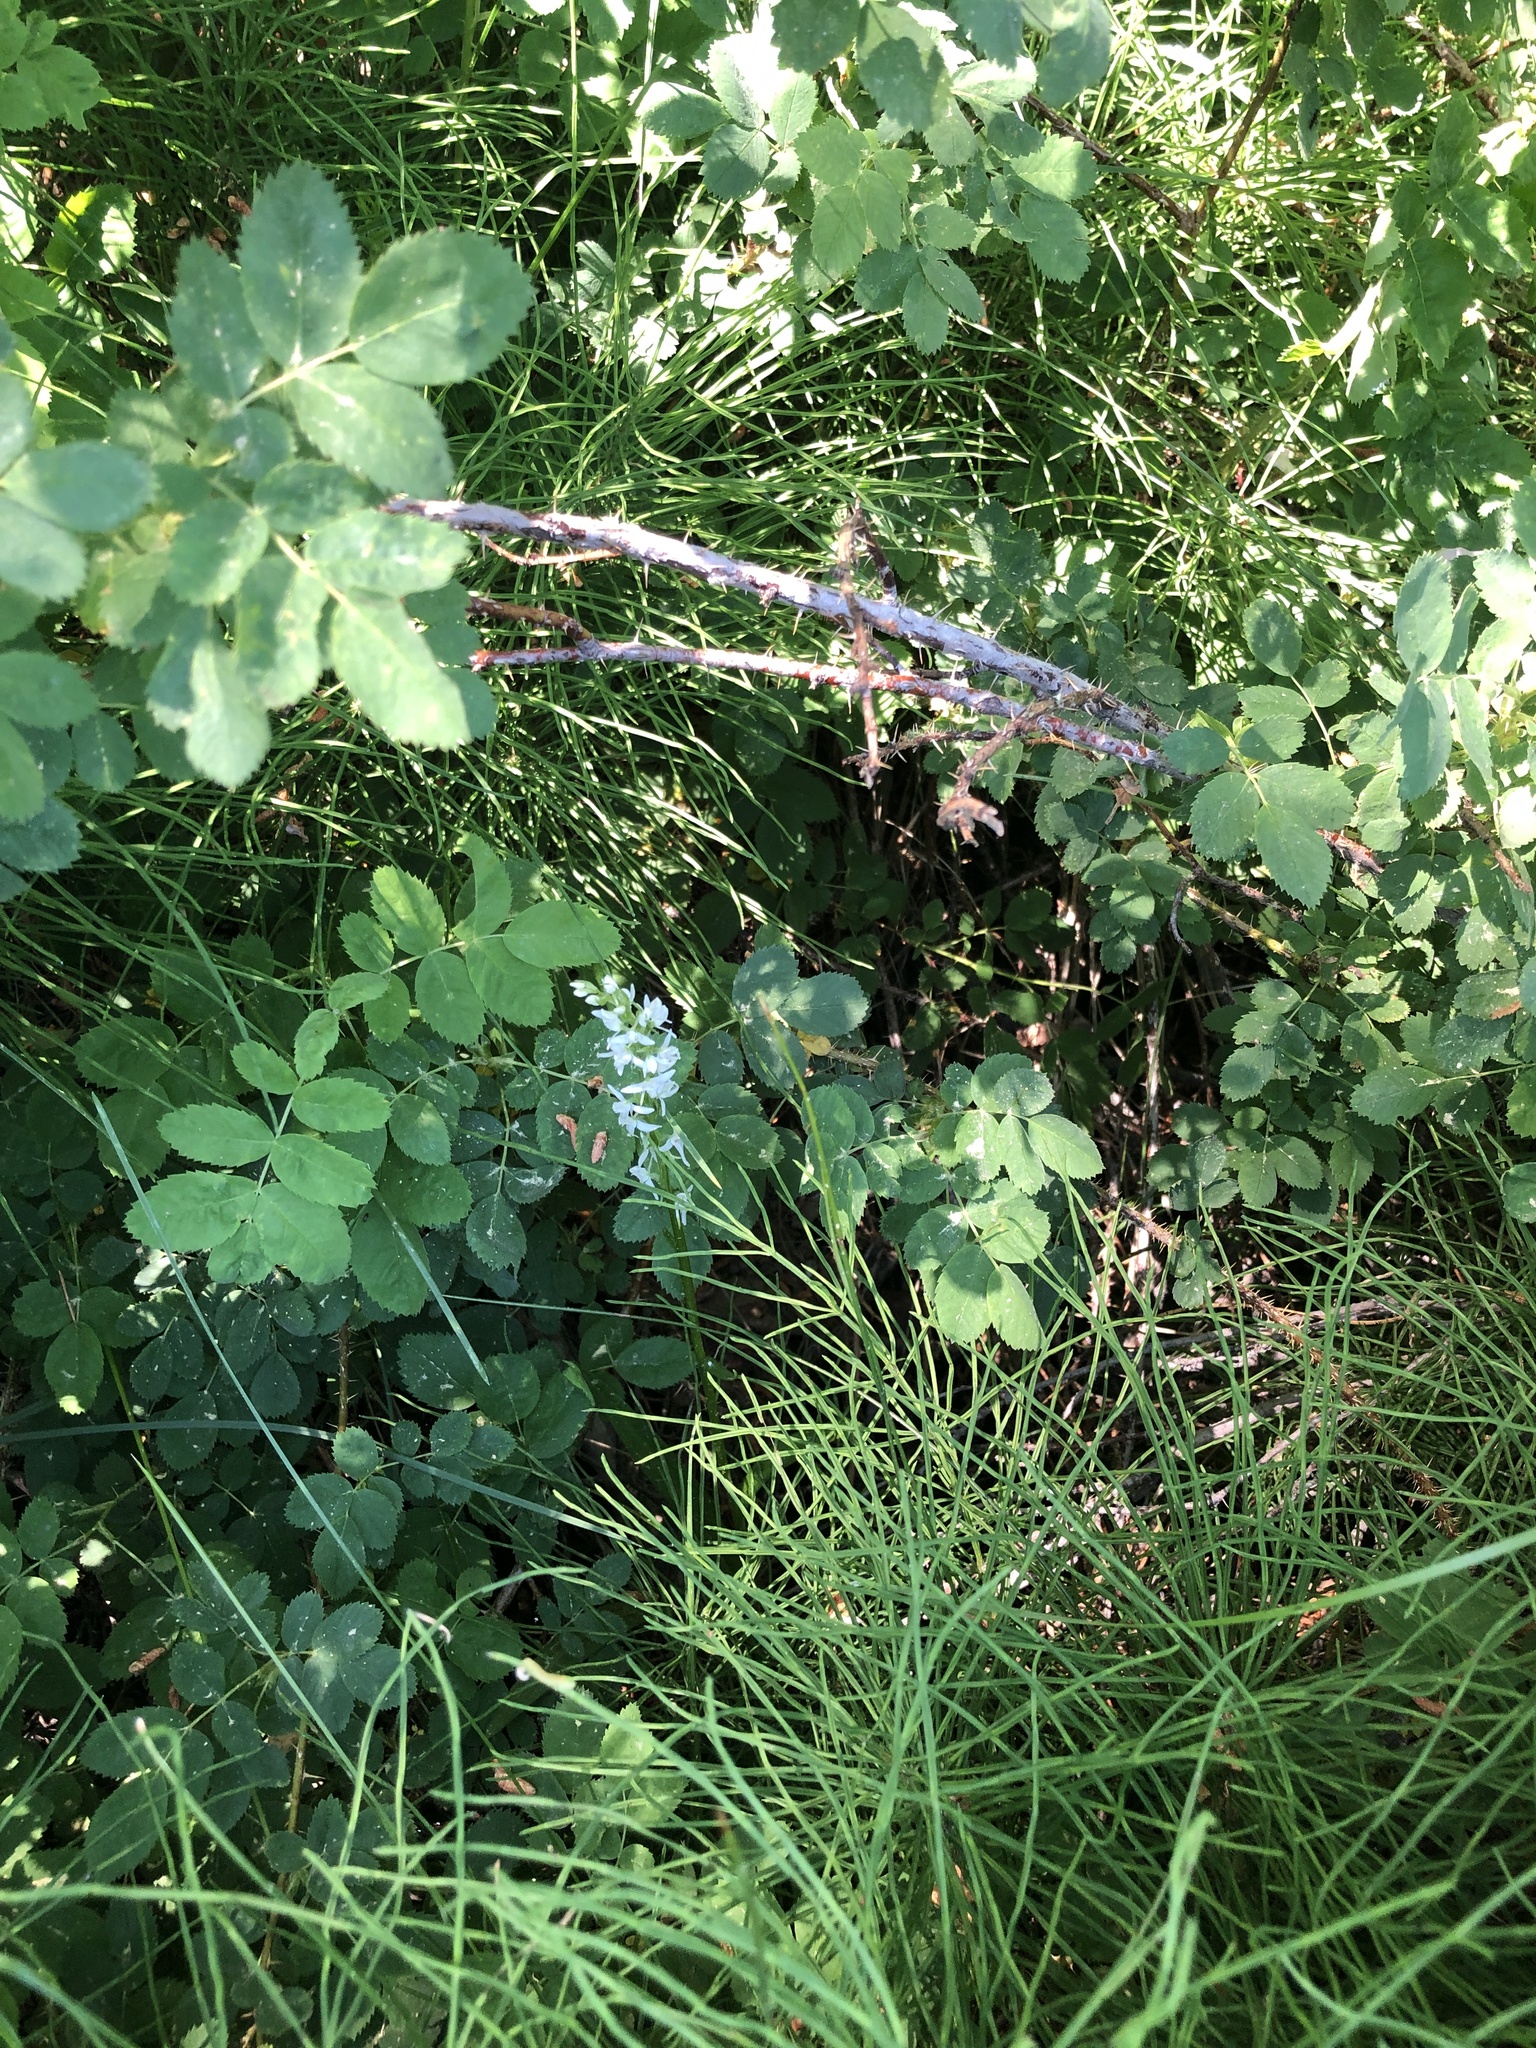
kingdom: Plantae
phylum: Tracheophyta
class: Liliopsida
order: Asparagales
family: Orchidaceae
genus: Platanthera
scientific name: Platanthera dilatata
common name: Bog candles
